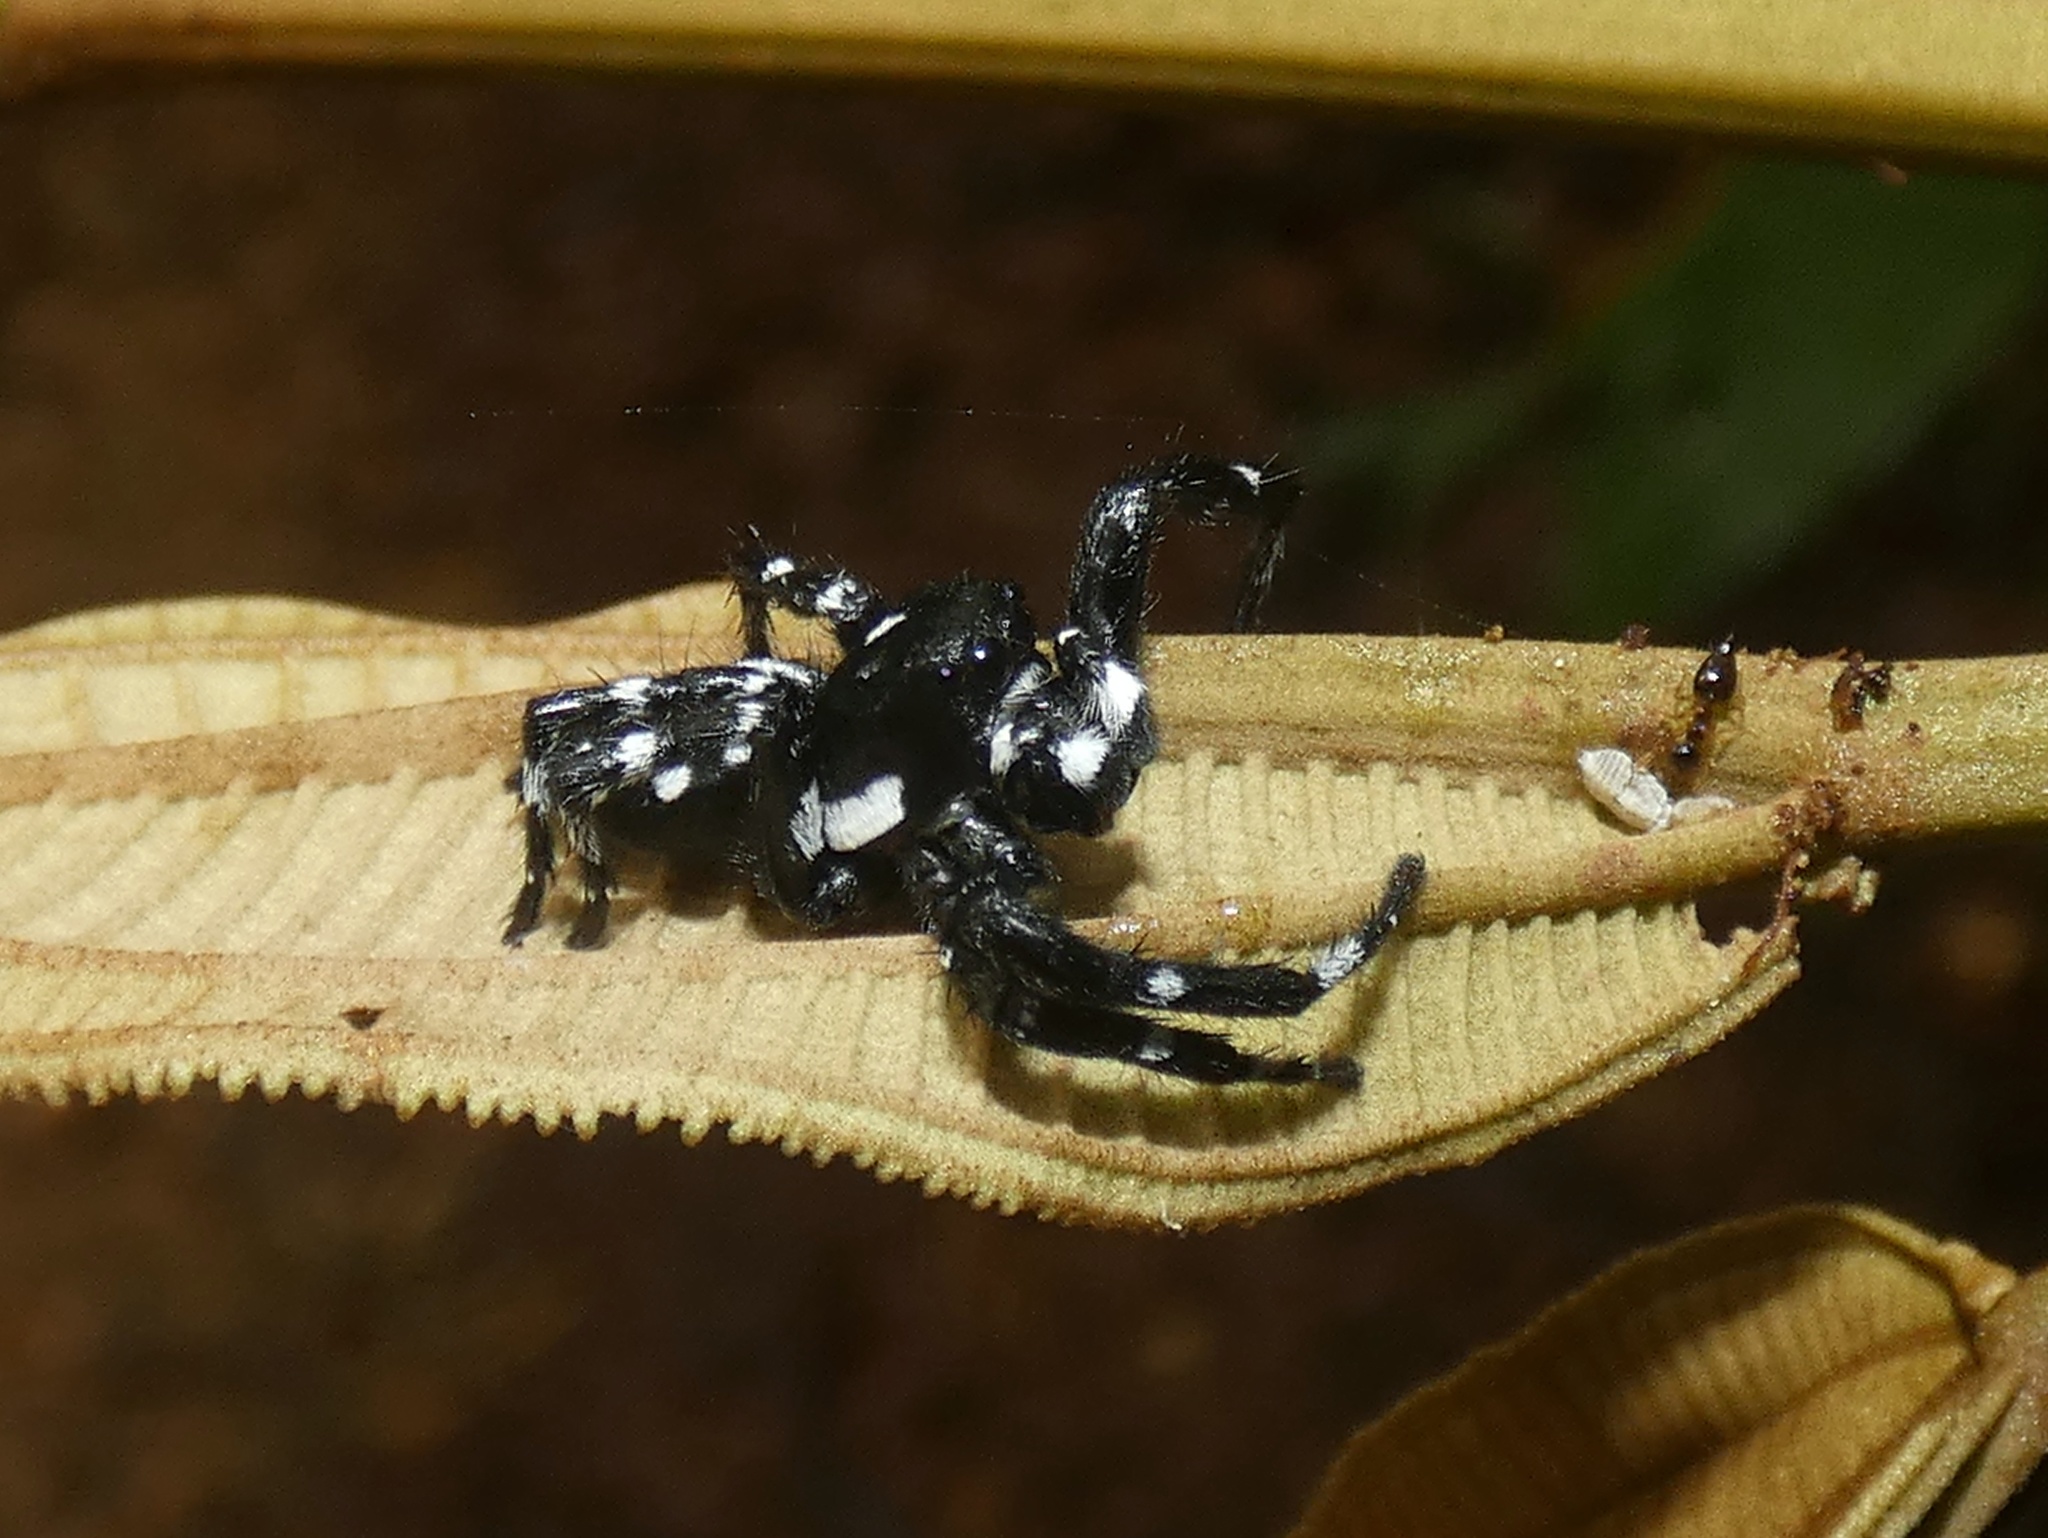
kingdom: Animalia
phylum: Arthropoda
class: Arachnida
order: Araneae
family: Salticidae
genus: Phiale
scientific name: Phiale guttata
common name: Jumping spiders
